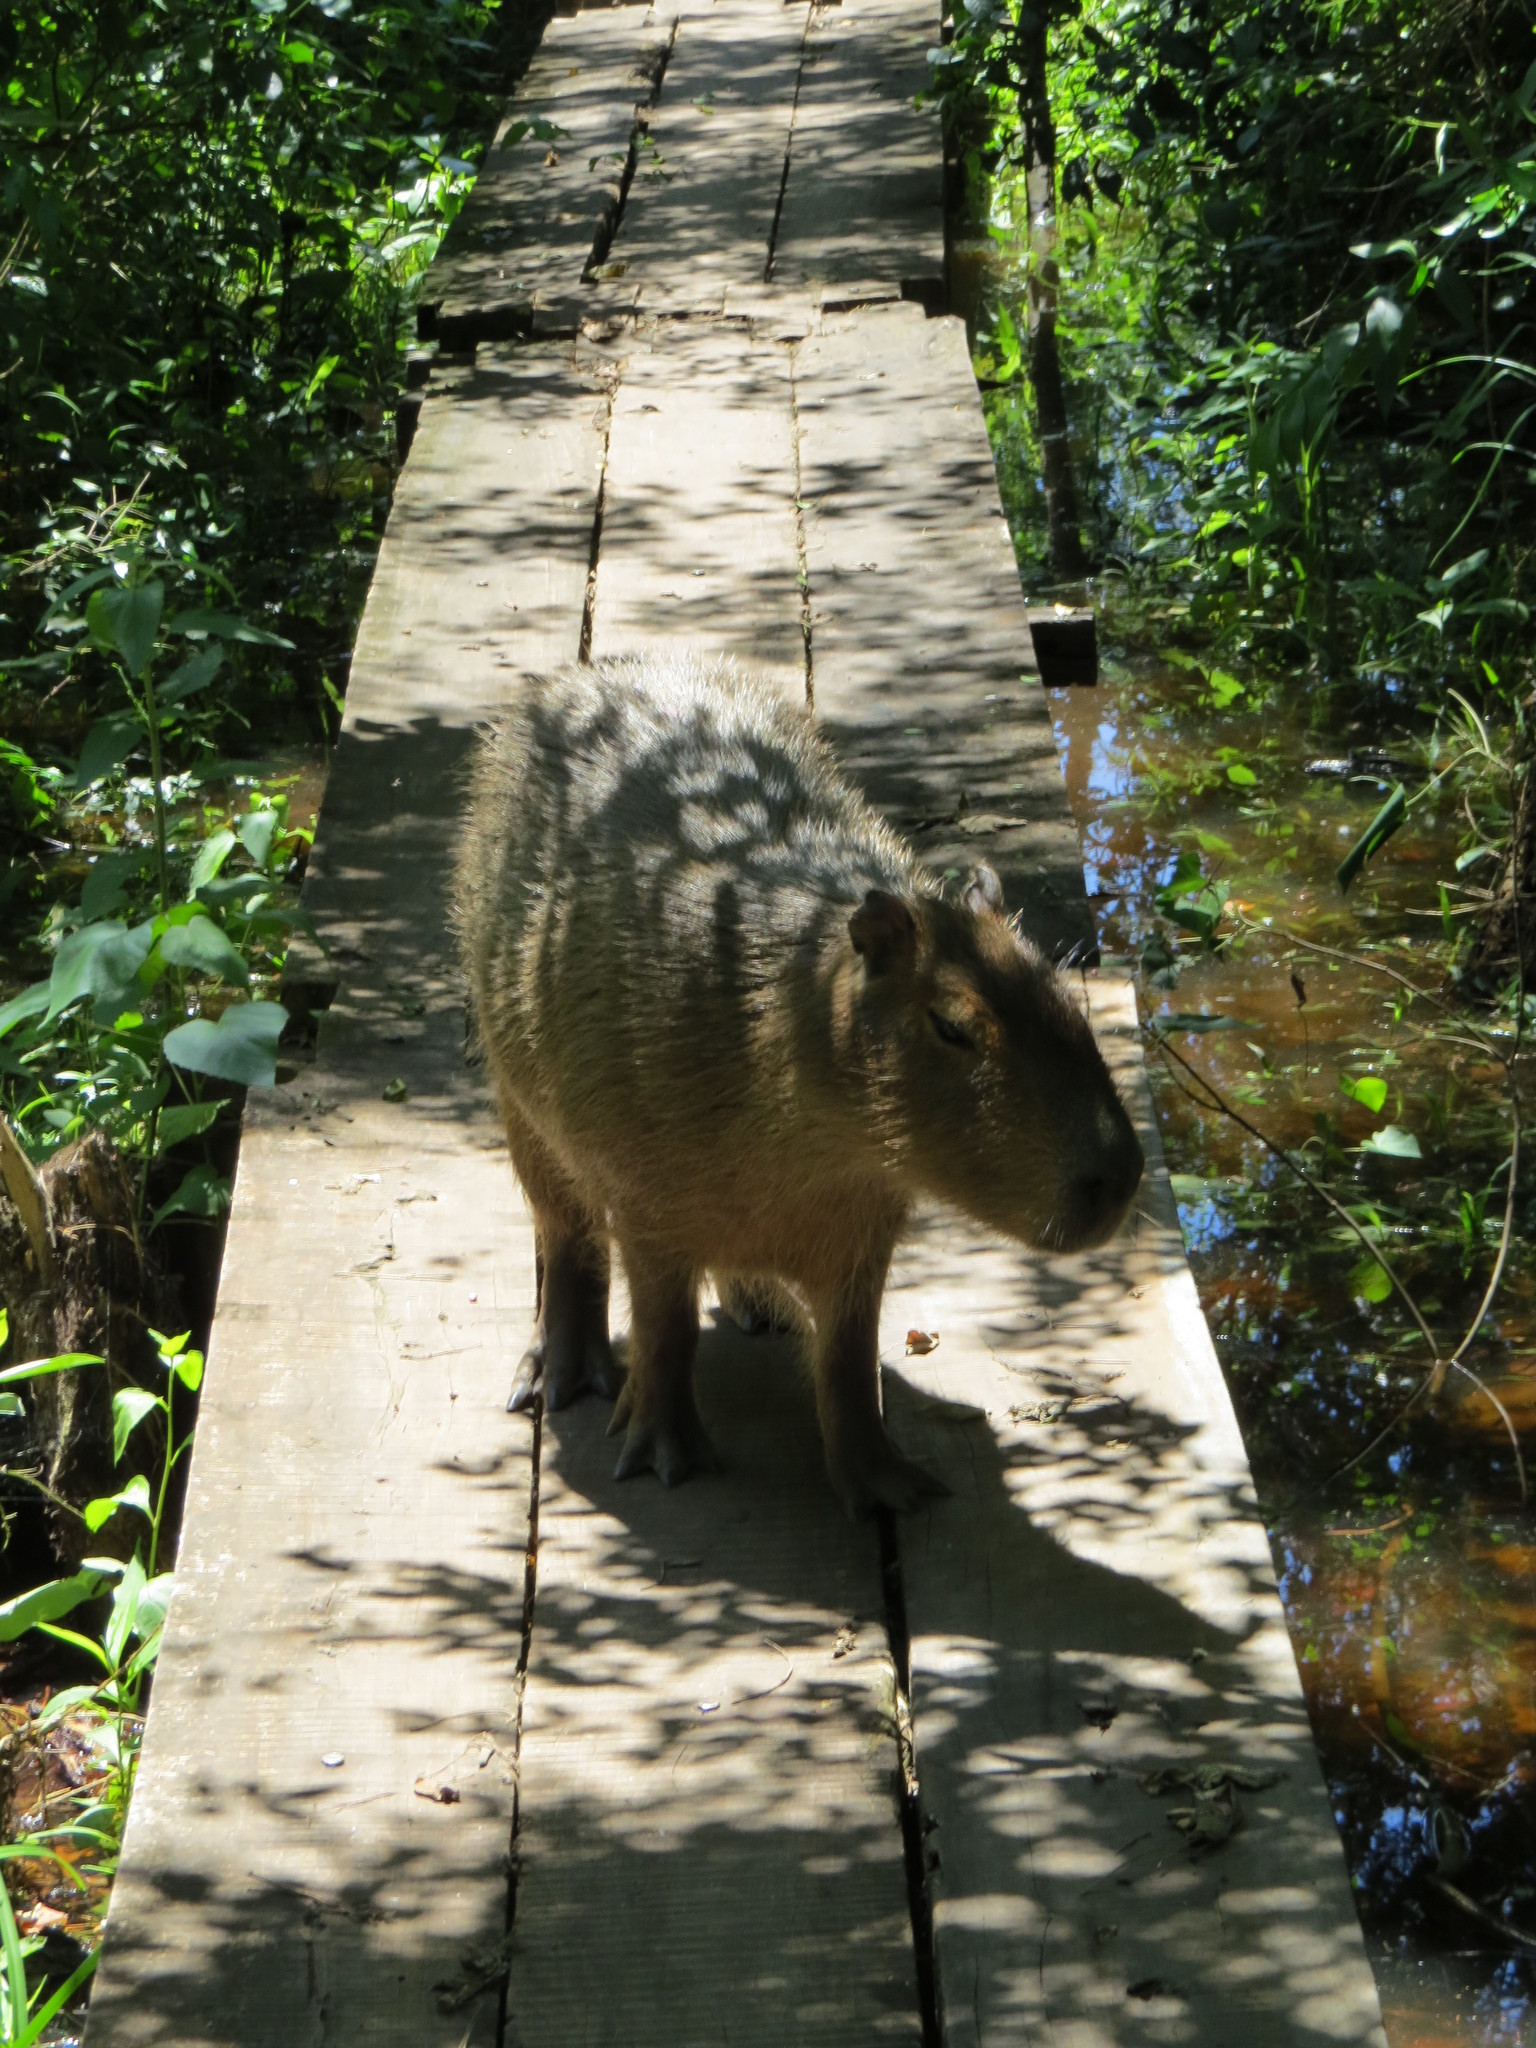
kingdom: Animalia
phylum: Chordata
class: Mammalia
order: Rodentia
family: Caviidae
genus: Hydrochoerus
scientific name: Hydrochoerus hydrochaeris
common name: Capybara
